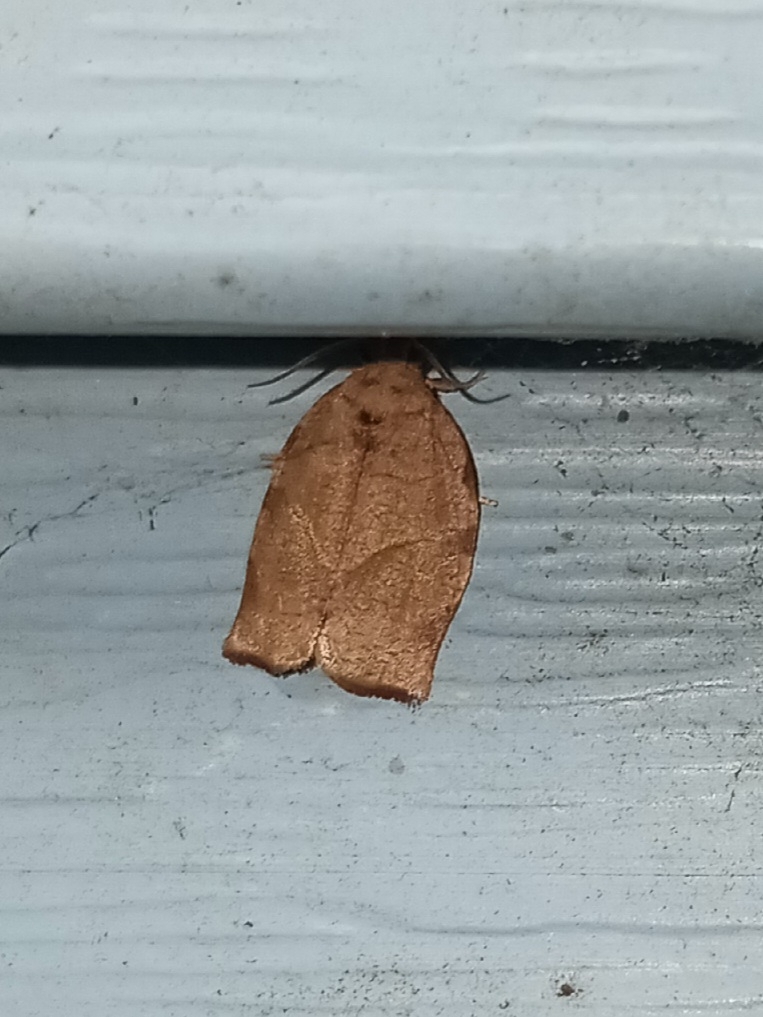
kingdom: Animalia
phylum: Arthropoda
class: Insecta
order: Lepidoptera
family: Tortricidae
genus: Choristoneura
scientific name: Choristoneura rosaceana
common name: Oblique-banded leafroller moth
